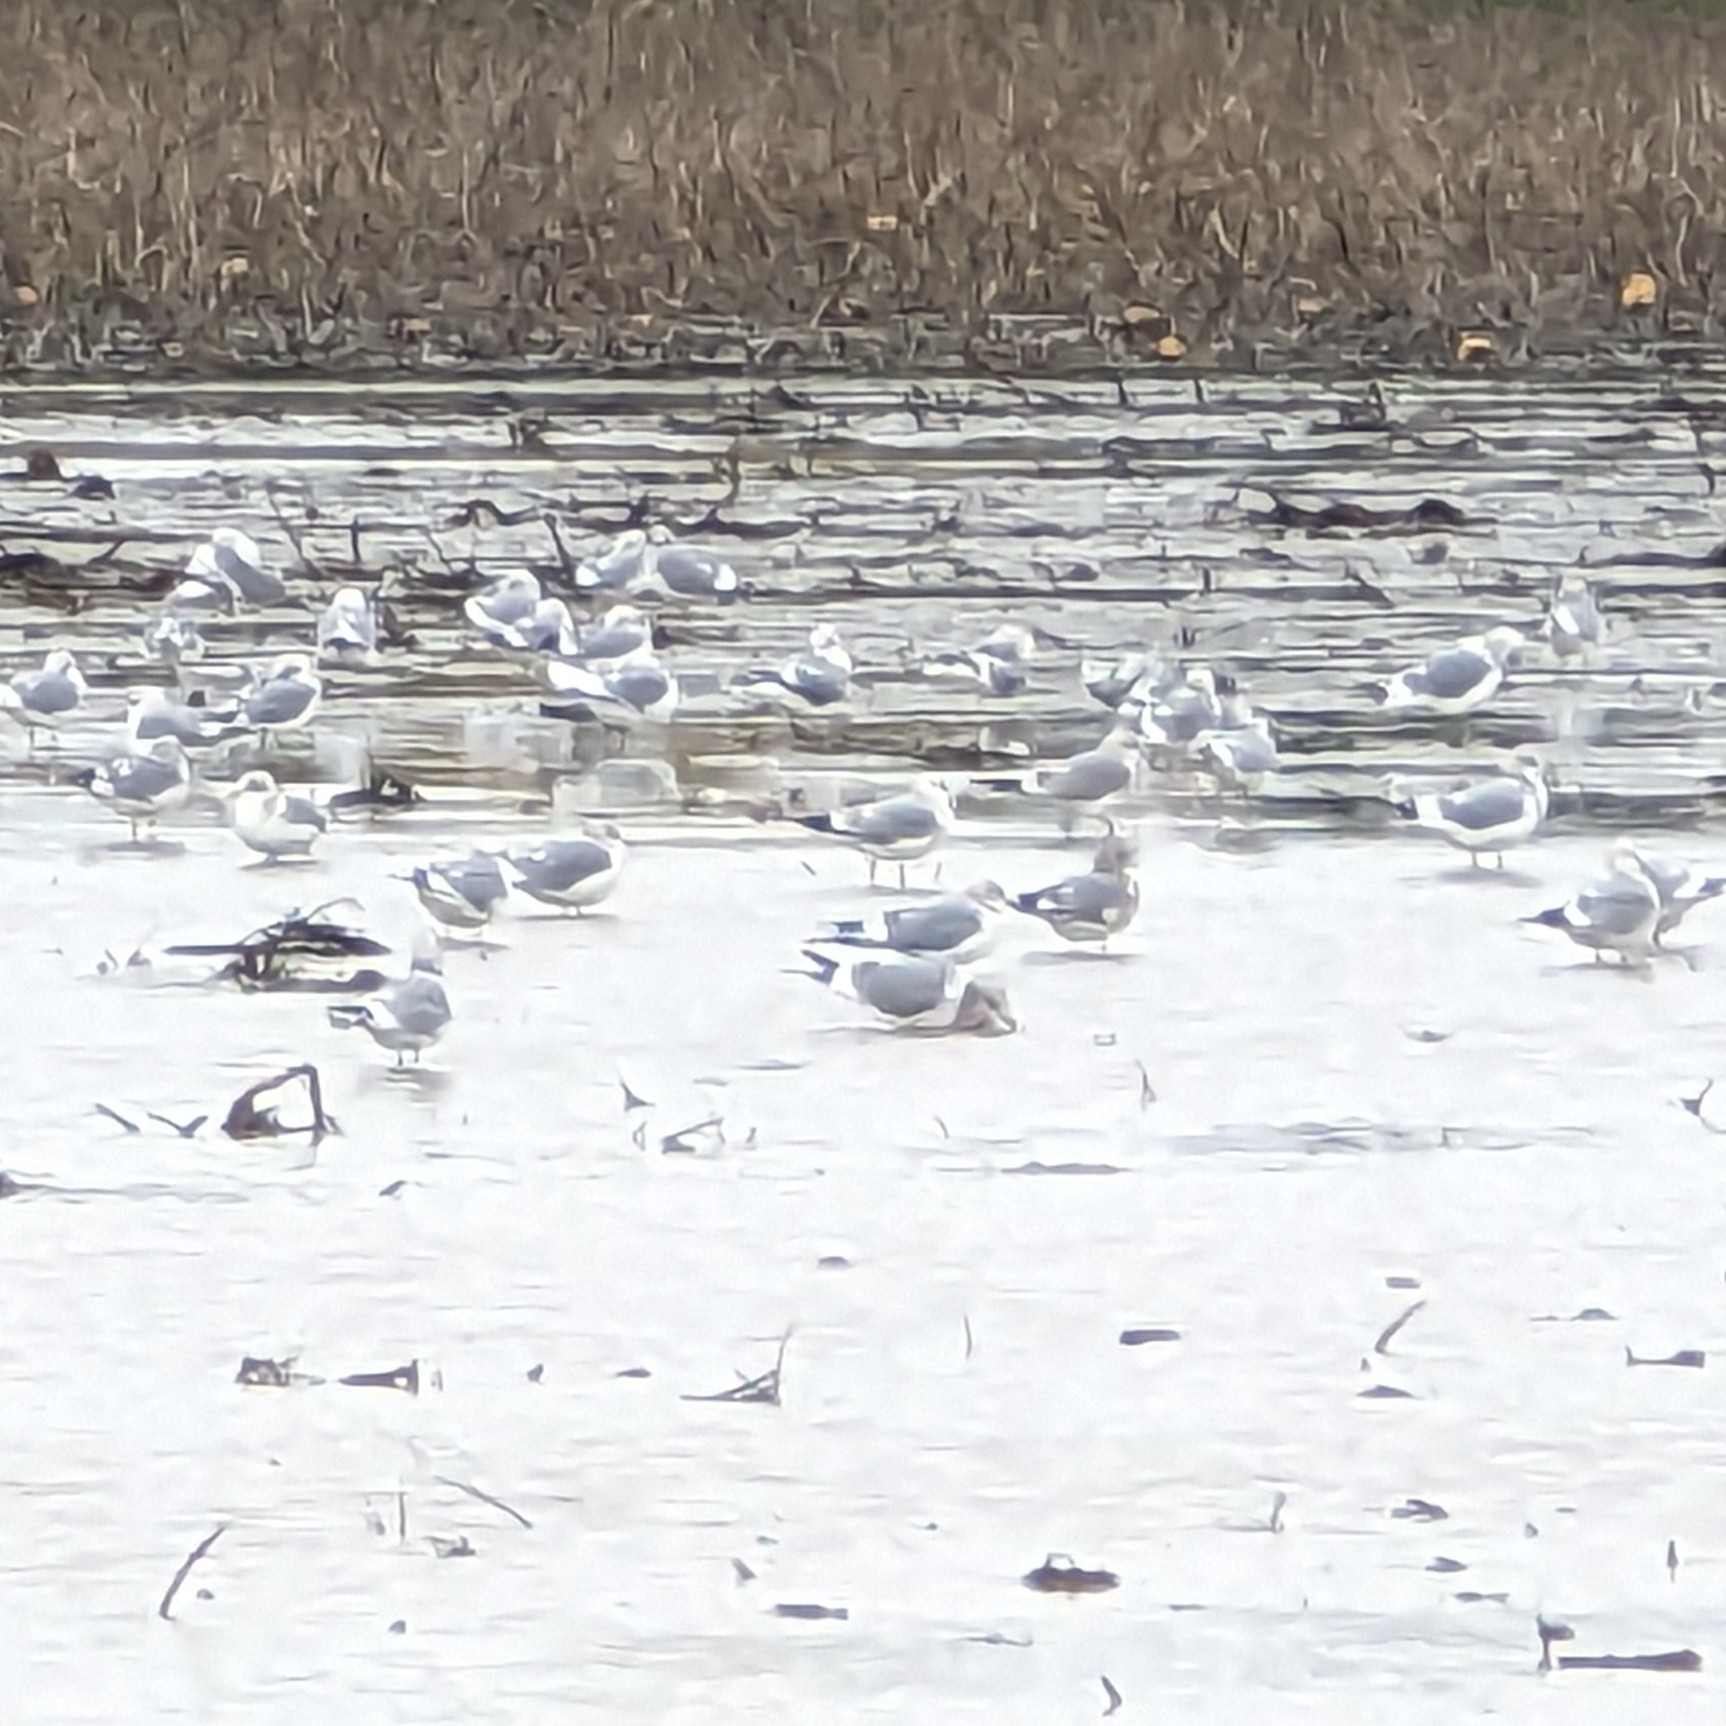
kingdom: Animalia
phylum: Chordata
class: Aves
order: Charadriiformes
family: Laridae
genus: Larus
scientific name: Larus brachyrhynchus
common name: Short-billed gull
